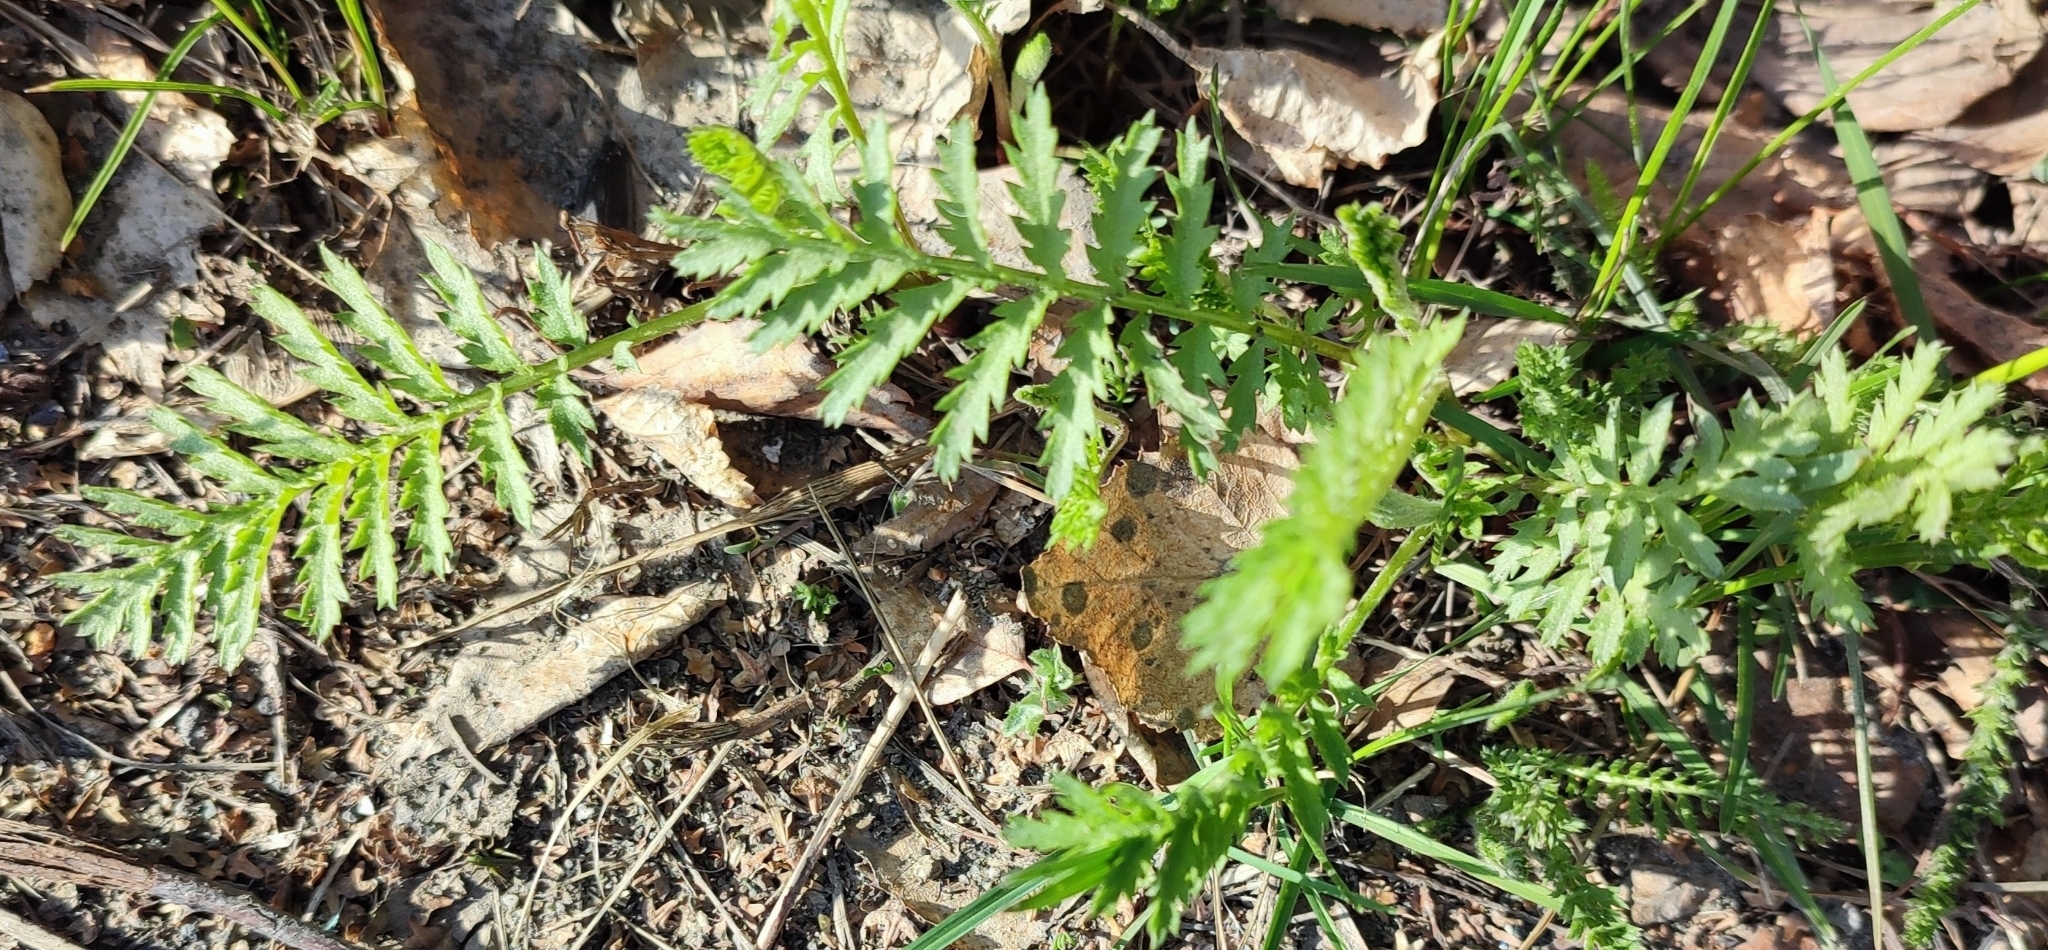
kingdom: Plantae
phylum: Tracheophyta
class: Magnoliopsida
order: Asterales
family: Asteraceae
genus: Tanacetum
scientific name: Tanacetum vulgare
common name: Common tansy
